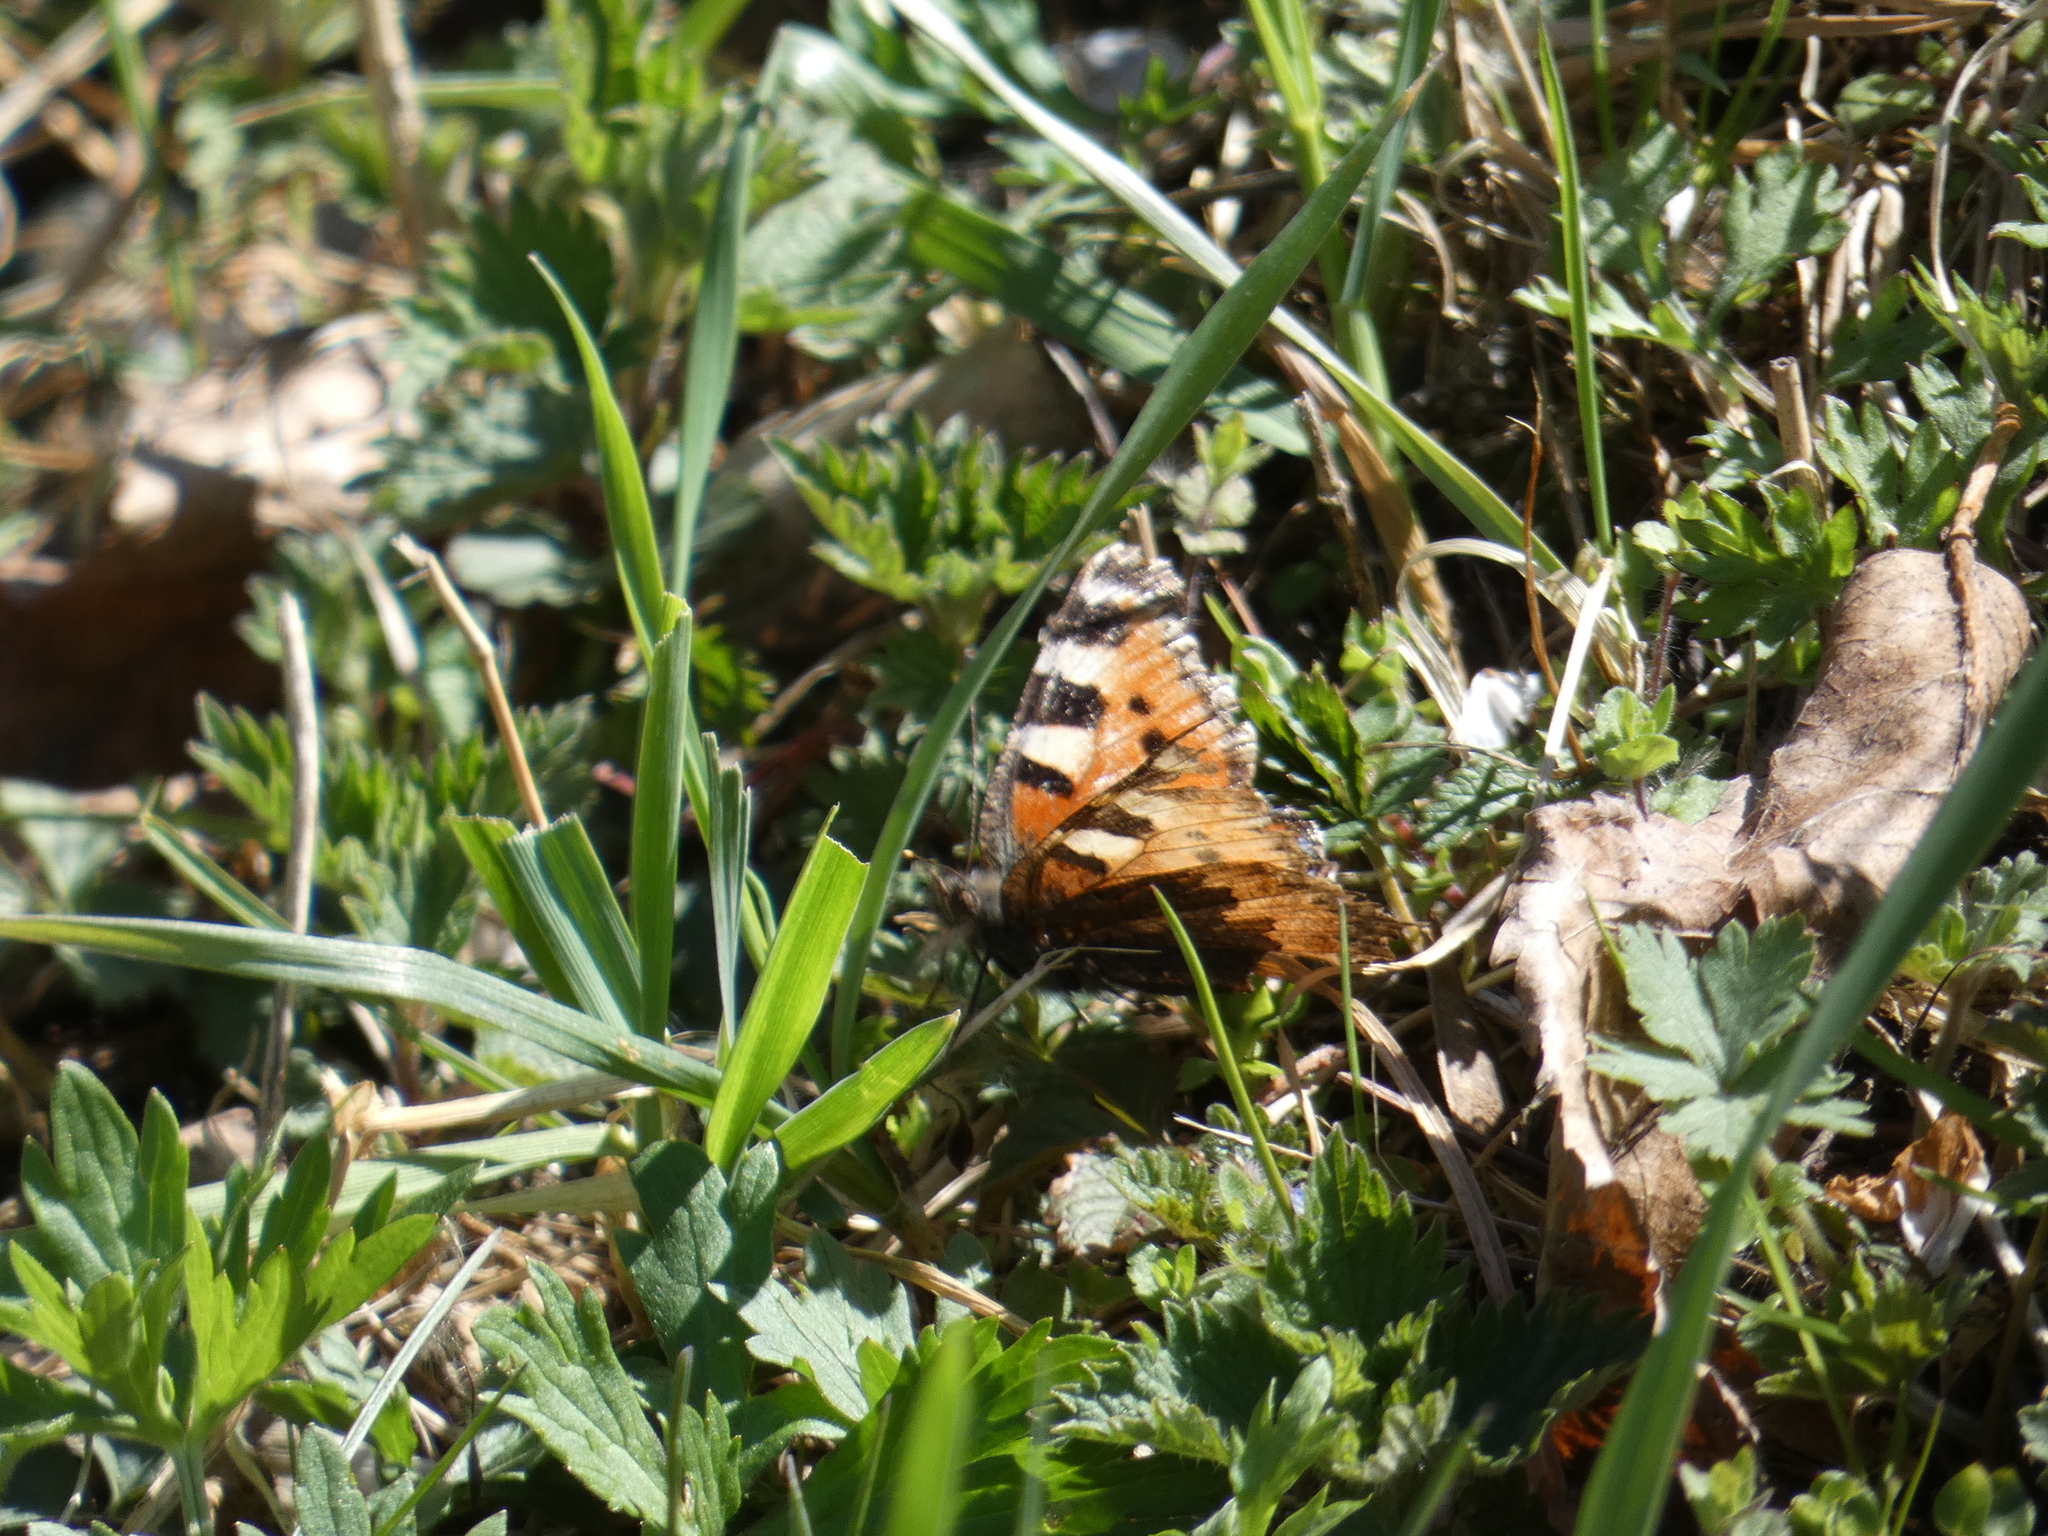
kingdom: Animalia
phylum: Arthropoda
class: Insecta
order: Lepidoptera
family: Nymphalidae
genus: Aglais
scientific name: Aglais urticae
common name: Small tortoiseshell
